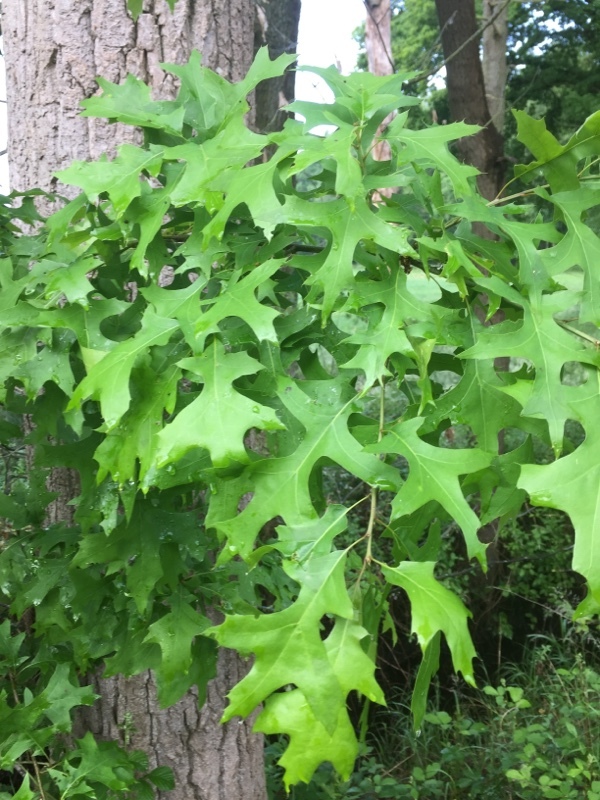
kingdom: Plantae
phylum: Tracheophyta
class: Magnoliopsida
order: Fagales
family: Fagaceae
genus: Quercus
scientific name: Quercus palustris
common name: Pin oak
